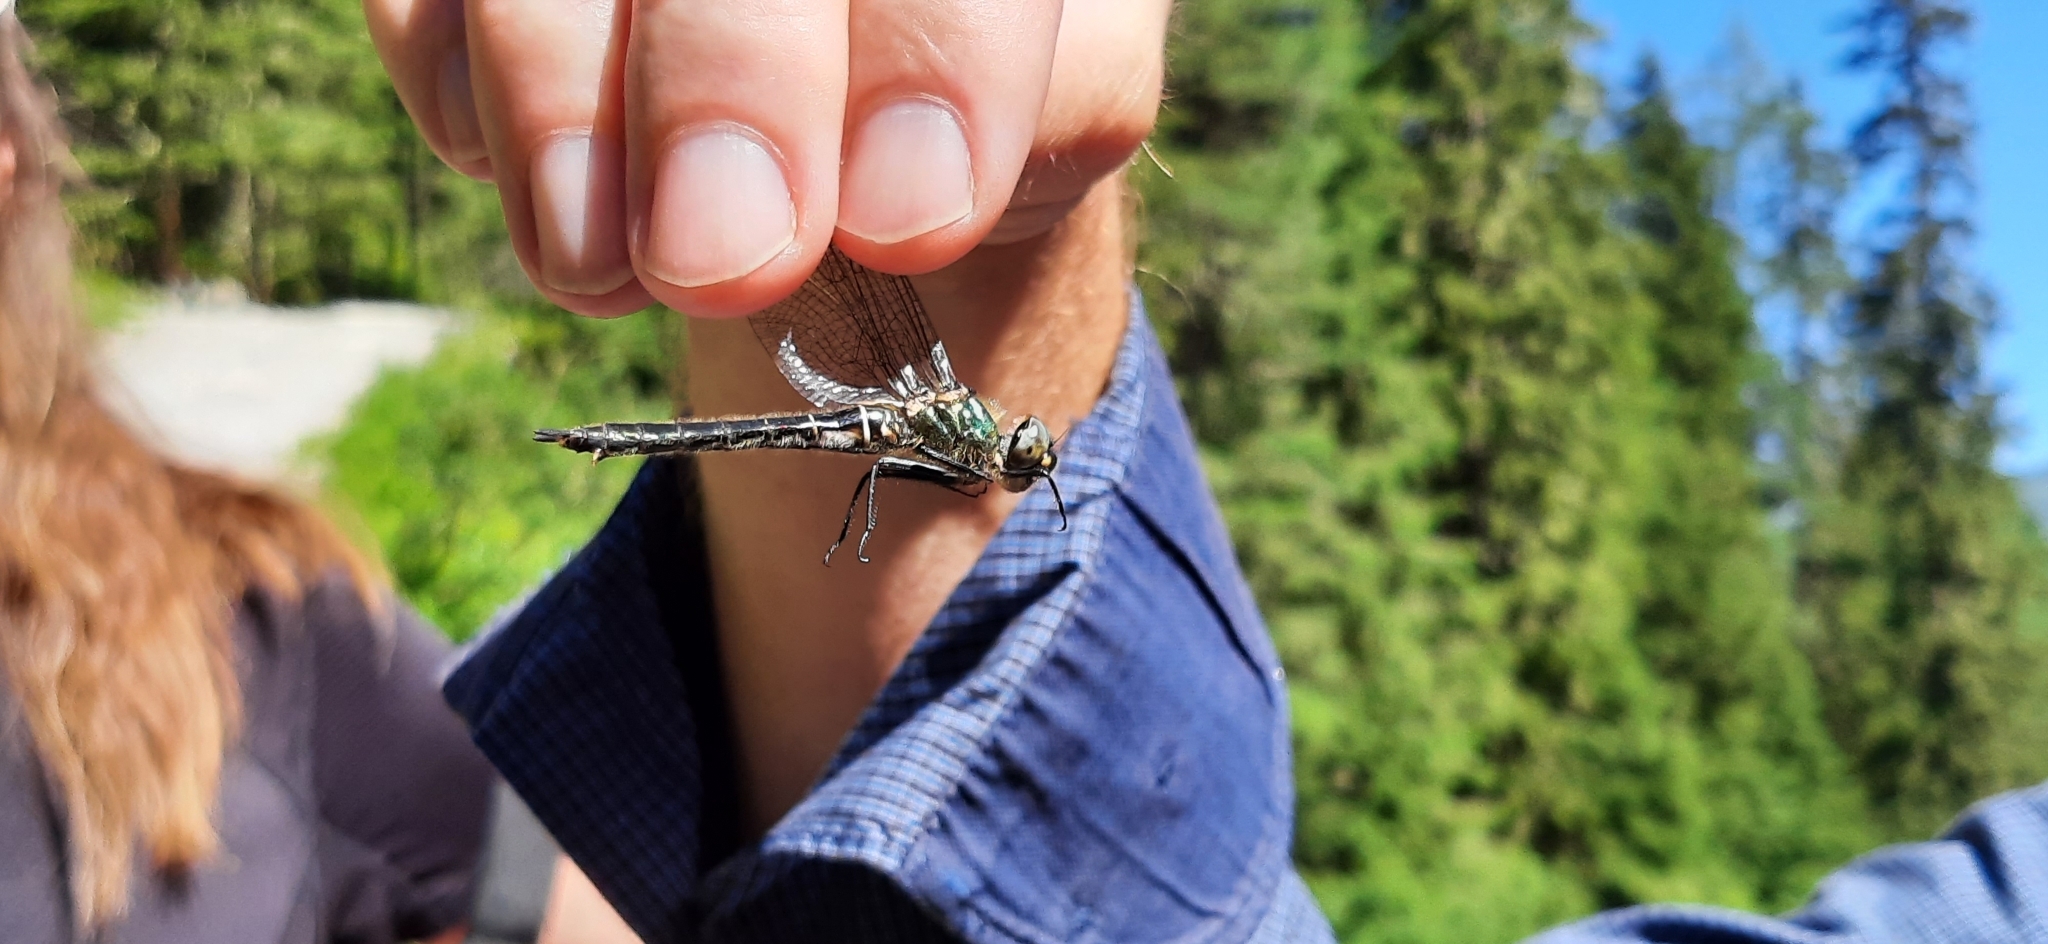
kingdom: Animalia
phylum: Arthropoda
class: Insecta
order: Odonata
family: Corduliidae
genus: Somatochlora
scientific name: Somatochlora alpestris
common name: Alpine emerald
